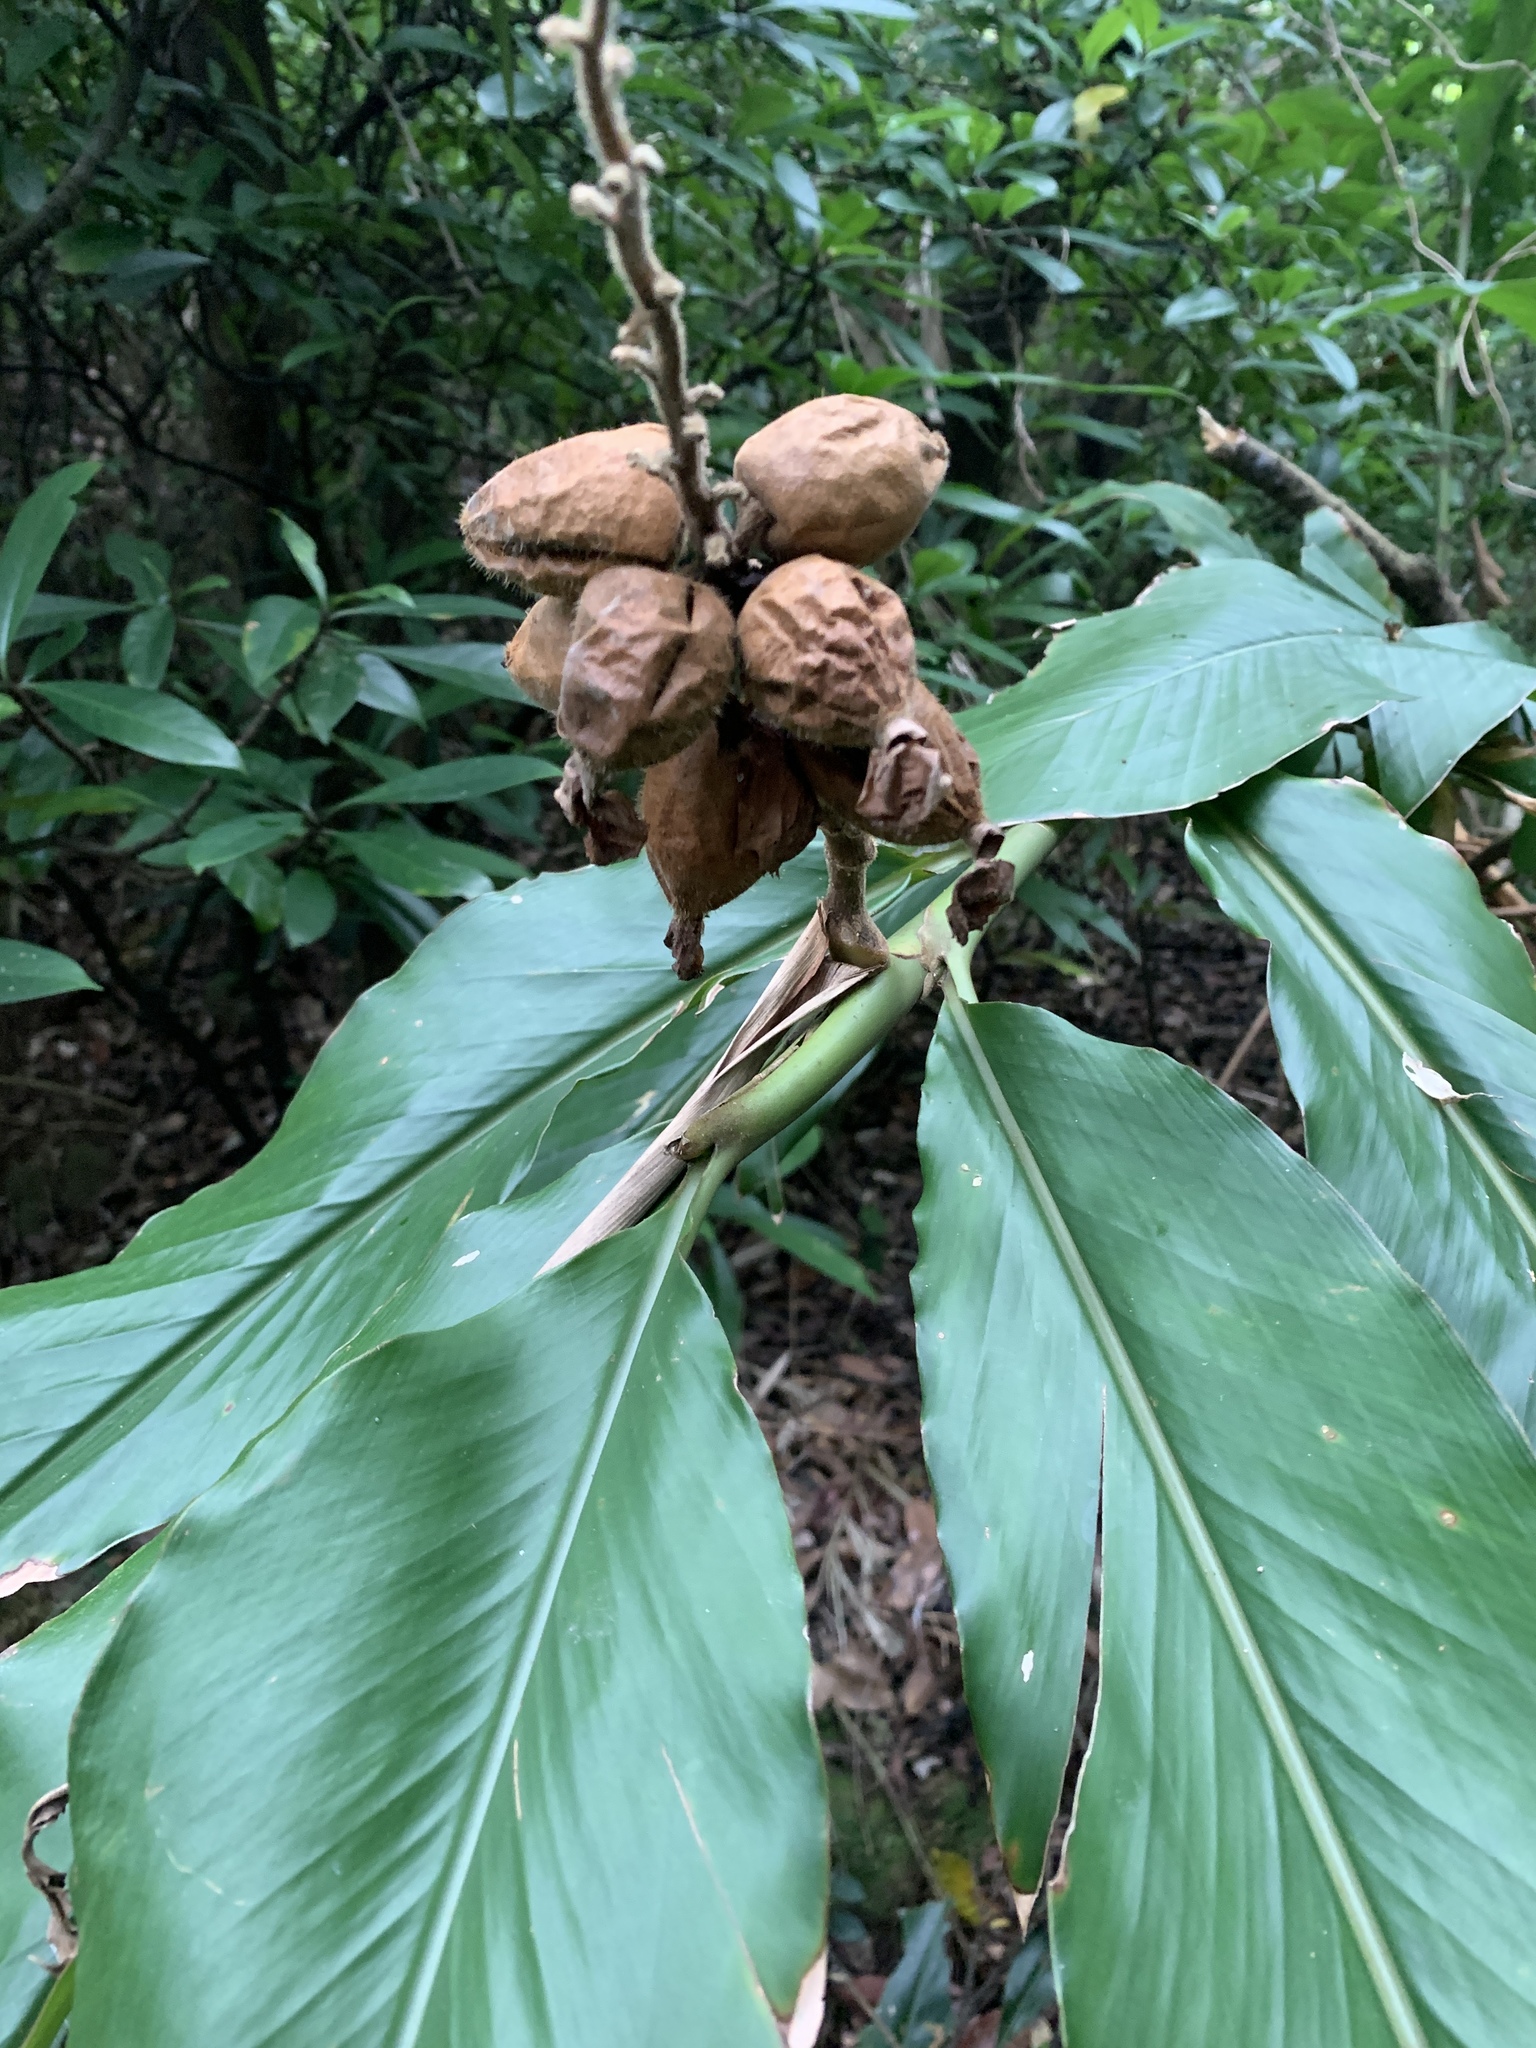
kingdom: Plantae
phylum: Tracheophyta
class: Liliopsida
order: Zingiberales
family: Zingiberaceae
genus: Alpinia
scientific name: Alpinia uraiensis
